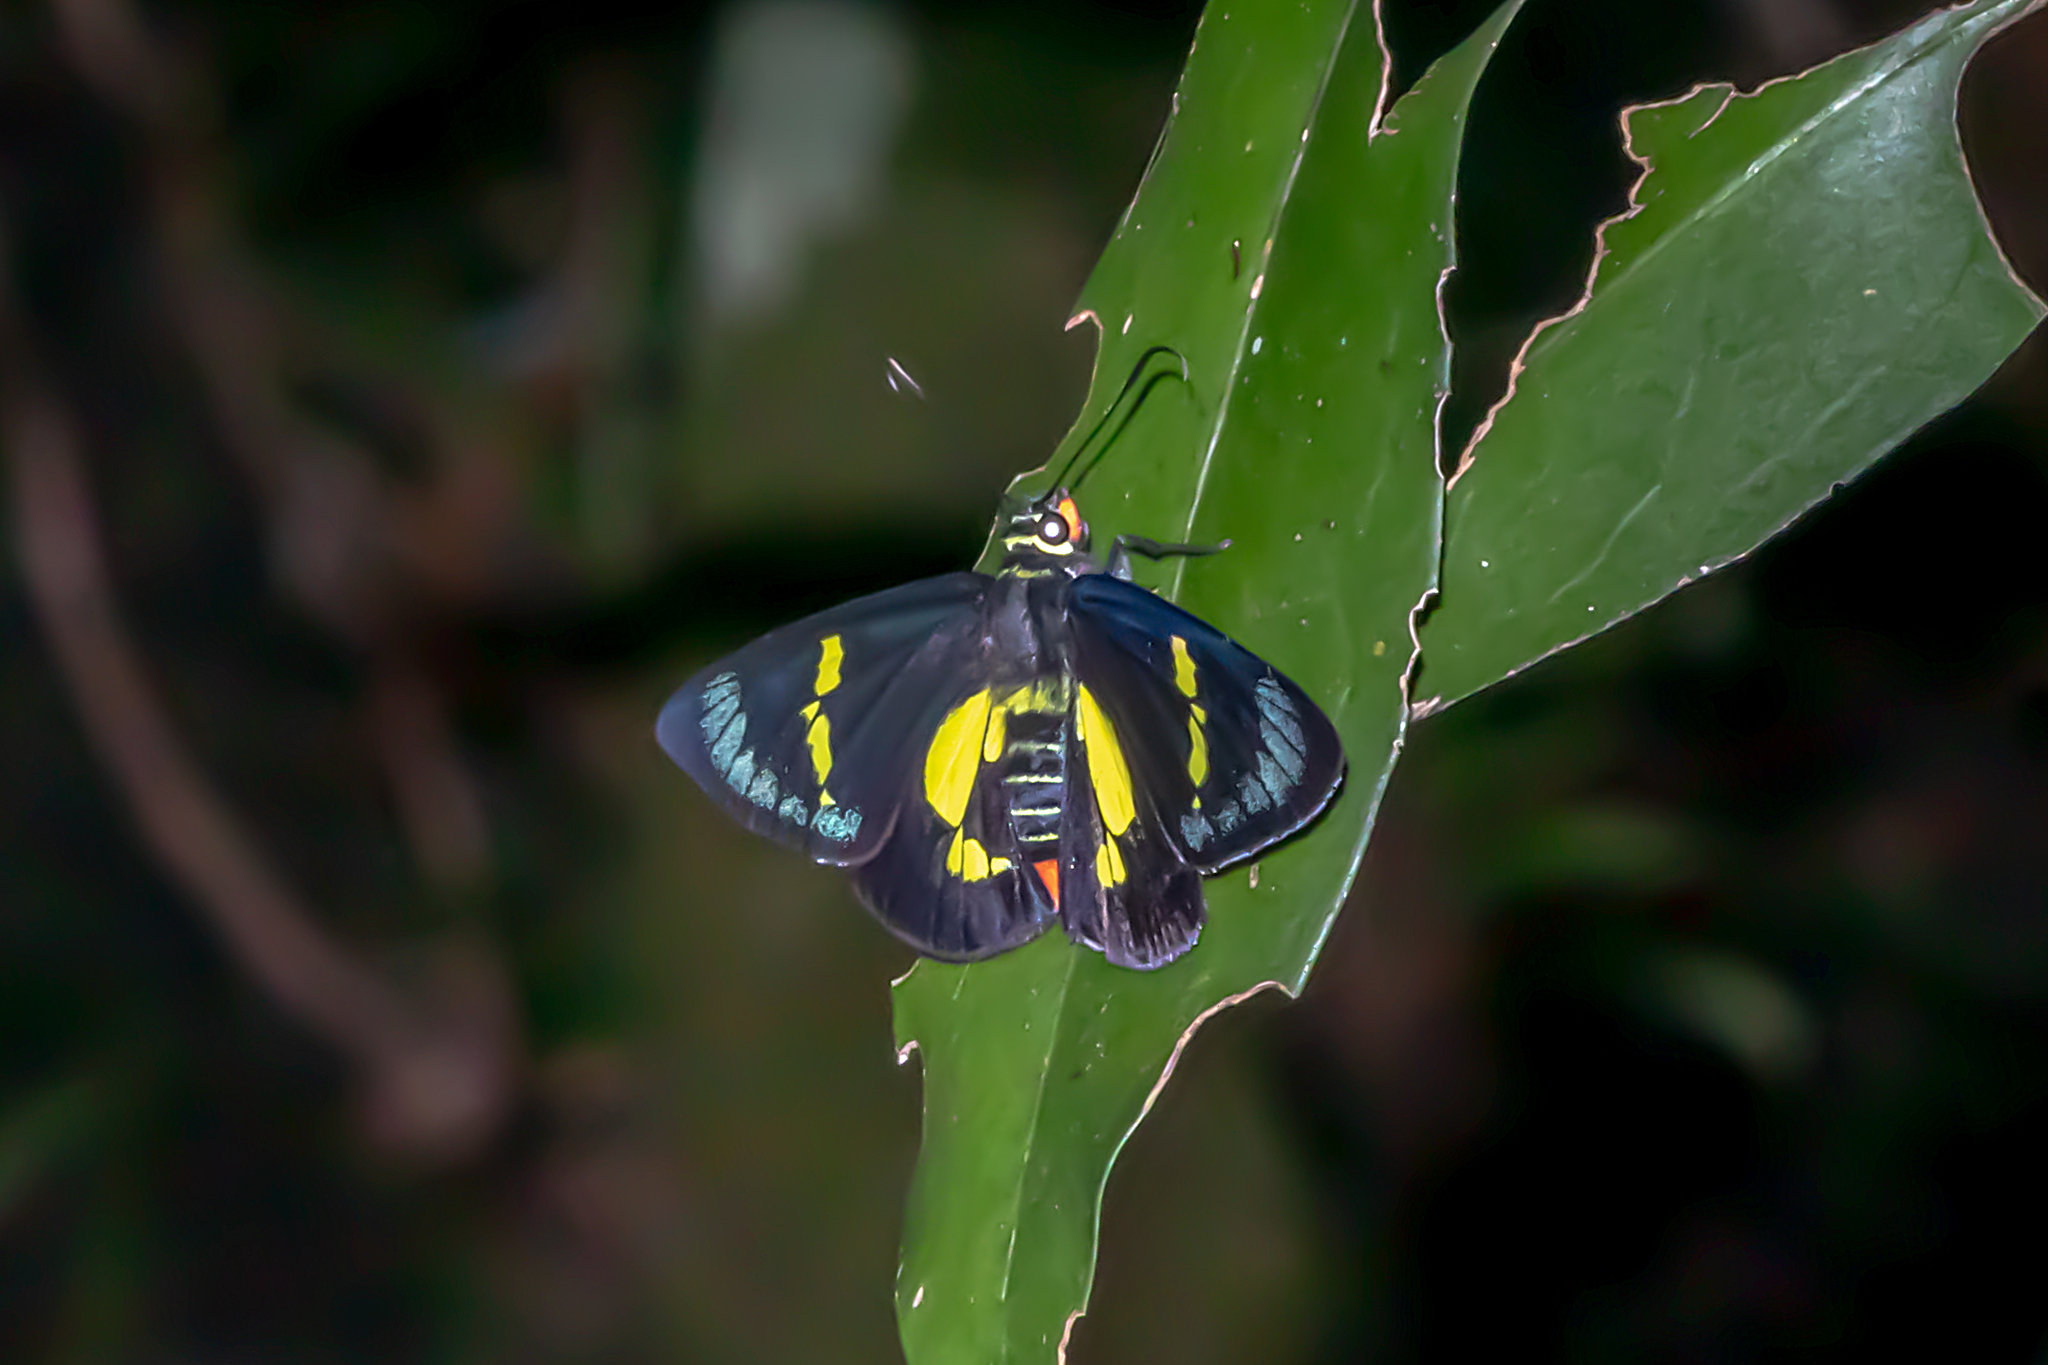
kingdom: Animalia
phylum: Arthropoda
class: Insecta
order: Lepidoptera
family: Hesperiidae
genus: Euschemon
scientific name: Euschemon rafflesia
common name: Regent skipper
